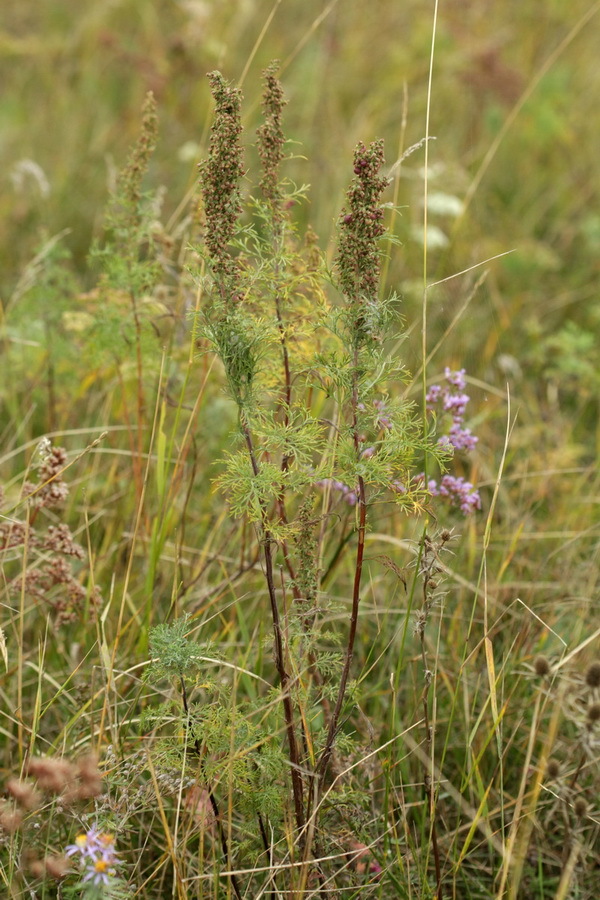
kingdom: Plantae
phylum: Tracheophyta
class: Magnoliopsida
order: Asterales
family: Asteraceae
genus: Artemisia
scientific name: Artemisia abrotanum
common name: Southernwood
